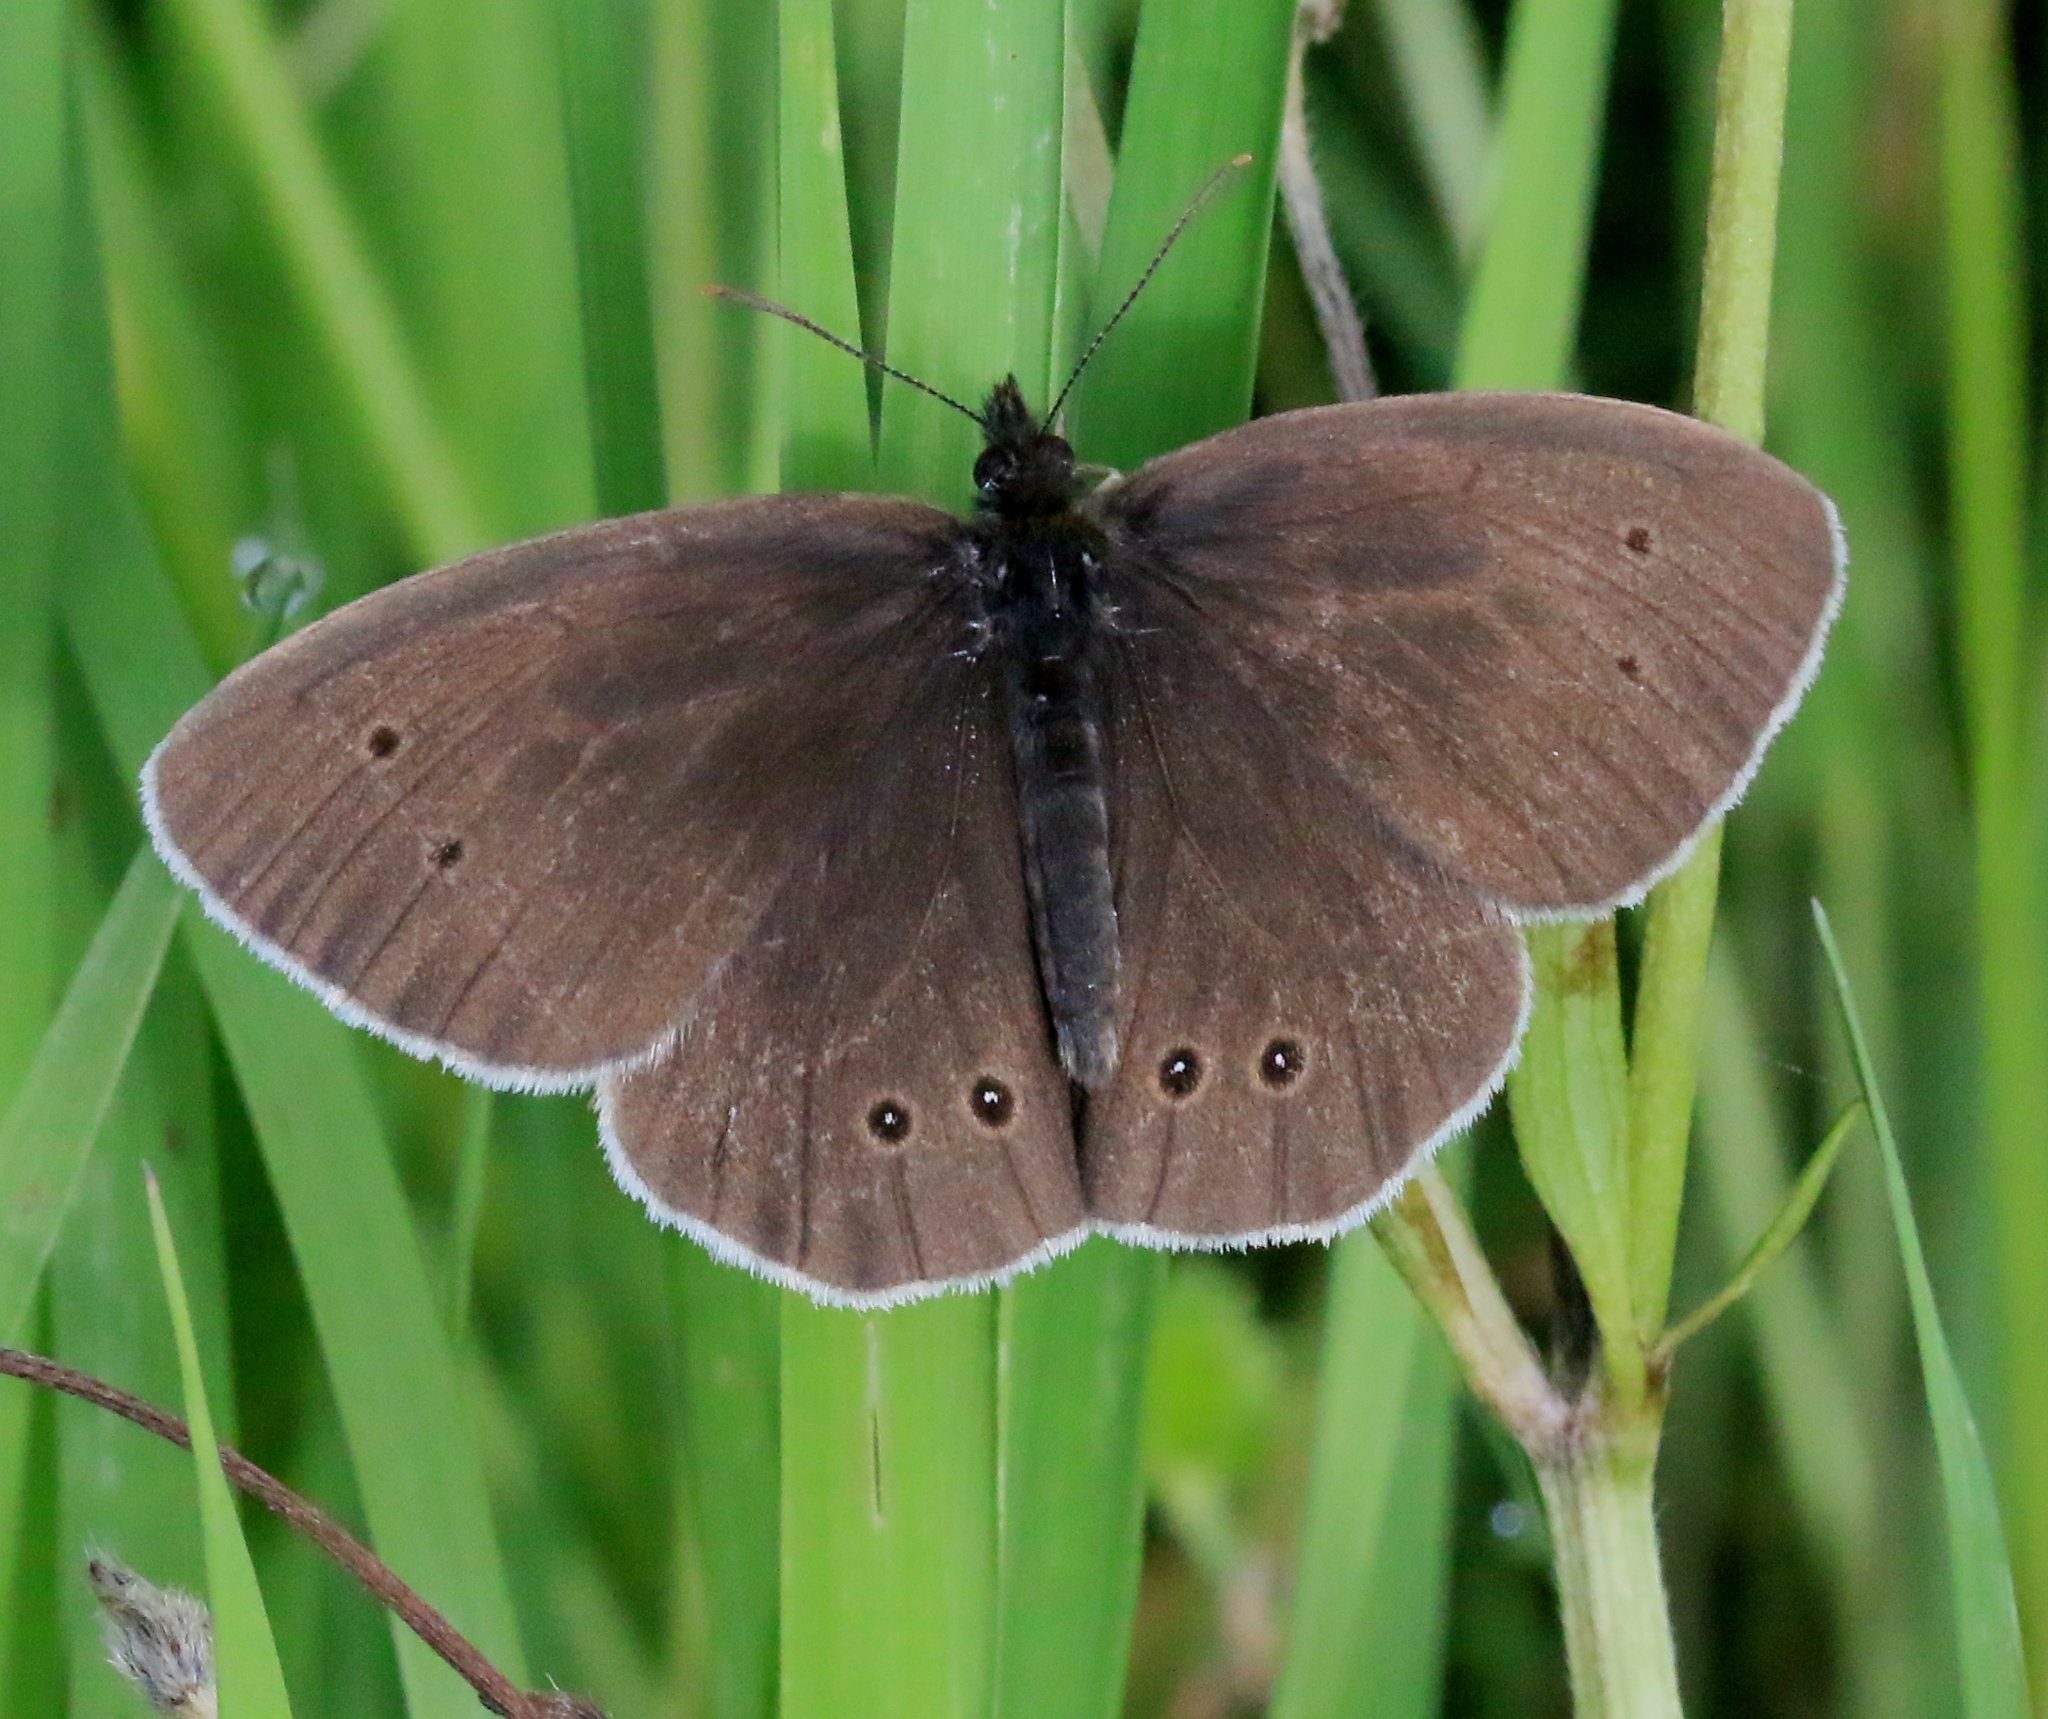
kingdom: Animalia
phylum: Arthropoda
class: Insecta
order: Lepidoptera
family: Nymphalidae
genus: Aphantopus
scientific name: Aphantopus hyperantus
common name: Ringlet
